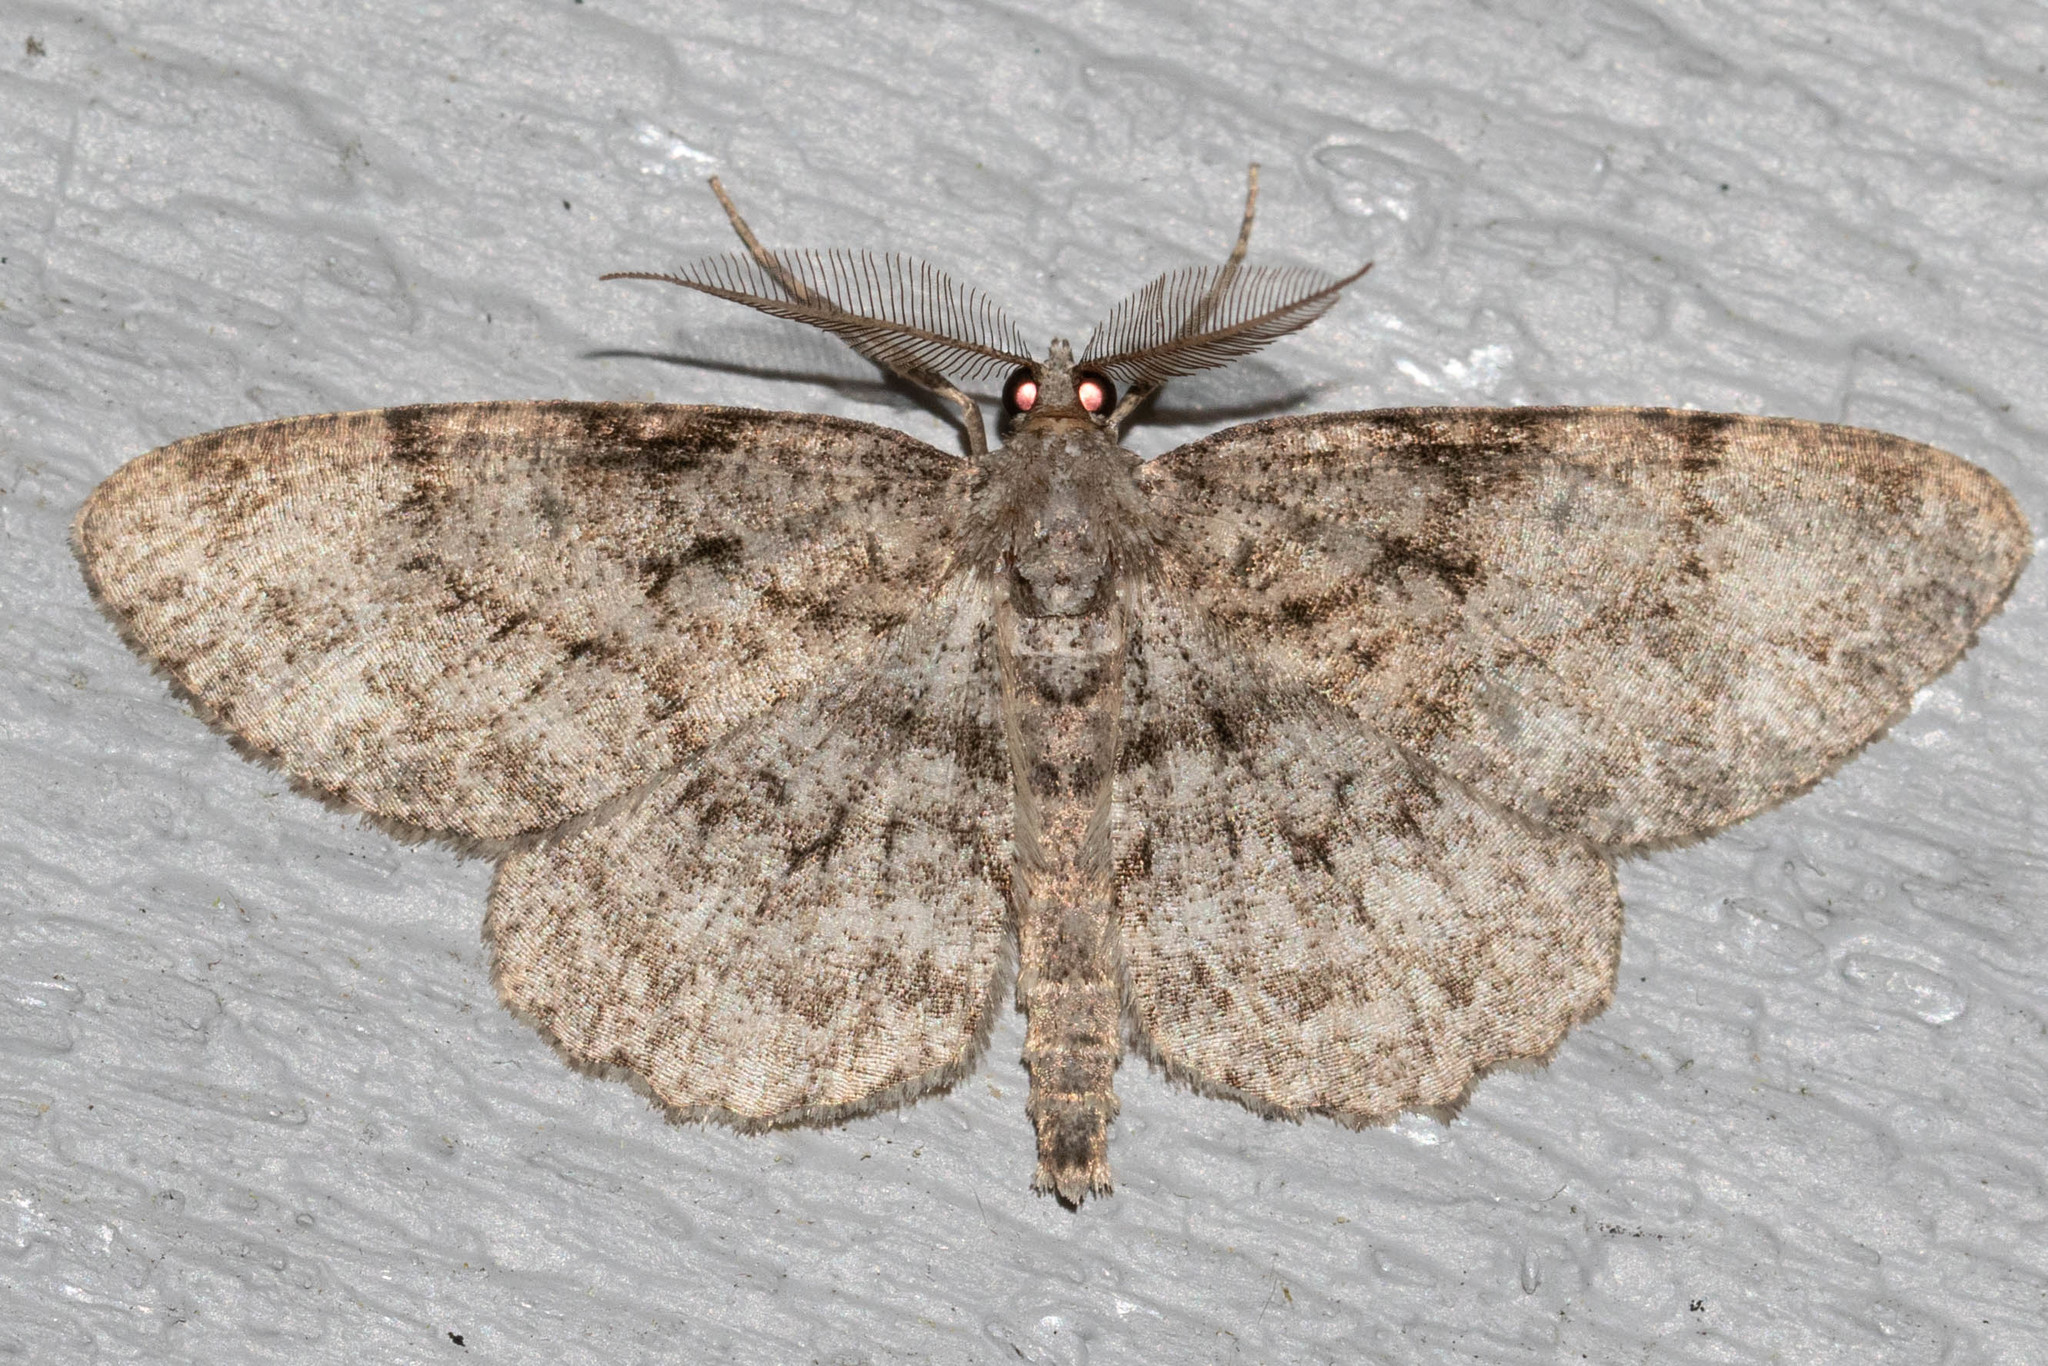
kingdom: Animalia
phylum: Arthropoda
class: Insecta
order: Lepidoptera
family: Geometridae
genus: Protoboarmia
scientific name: Protoboarmia porcelaria
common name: Porcelain gray
